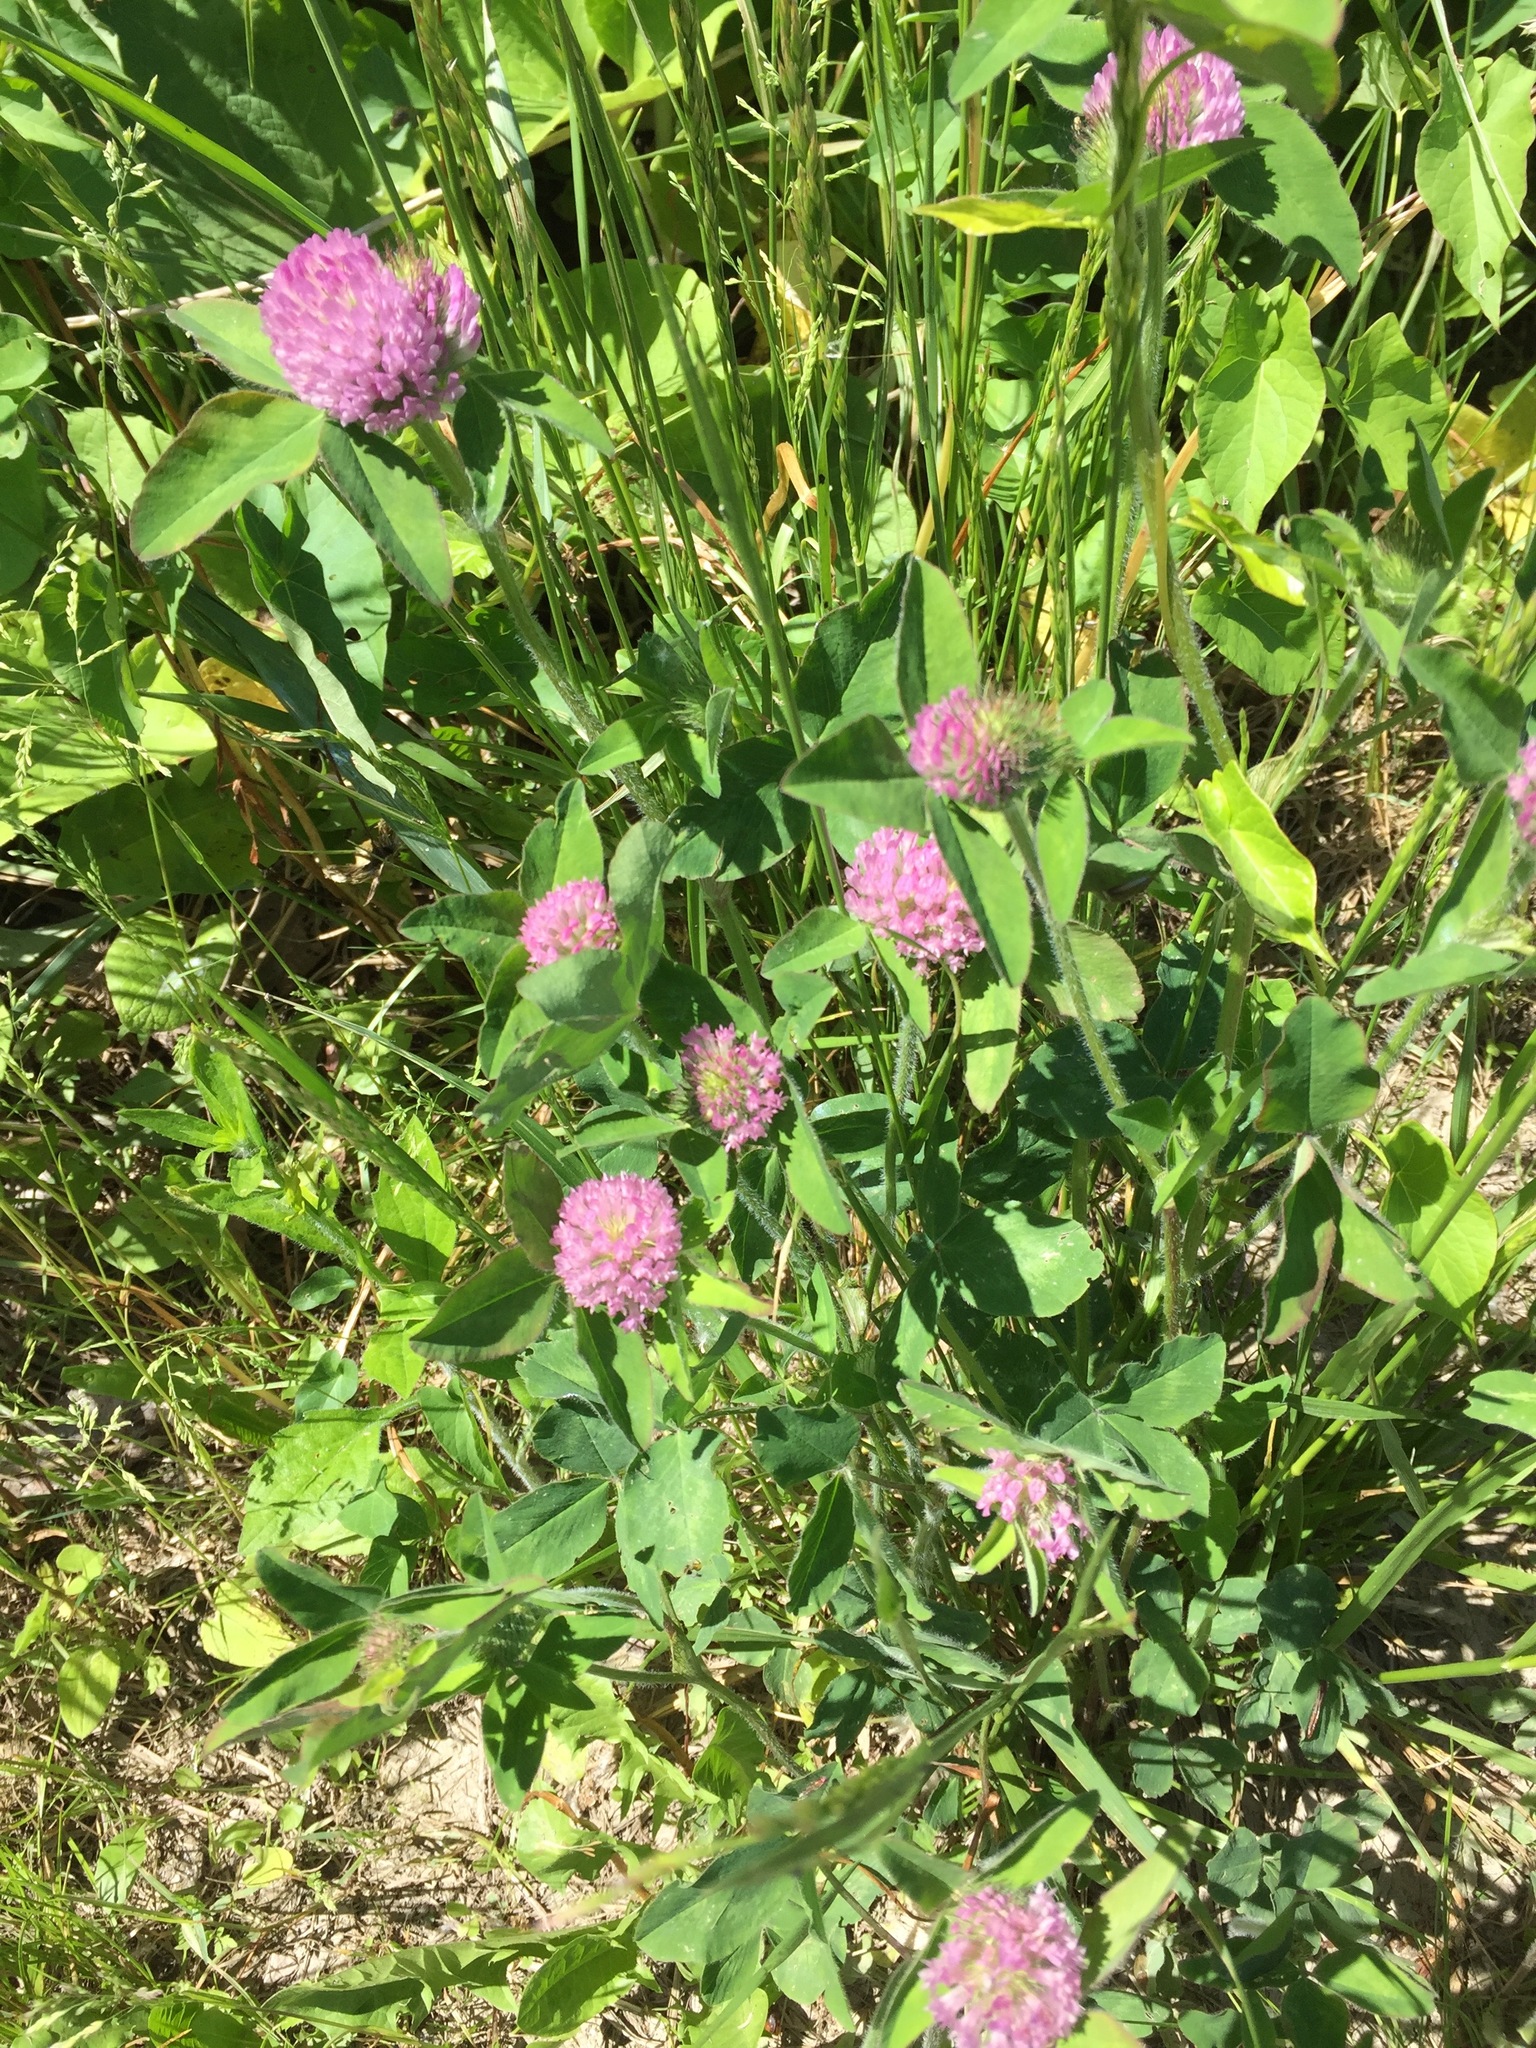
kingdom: Plantae
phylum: Tracheophyta
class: Magnoliopsida
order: Fabales
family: Fabaceae
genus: Trifolium
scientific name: Trifolium pratense
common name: Red clover
